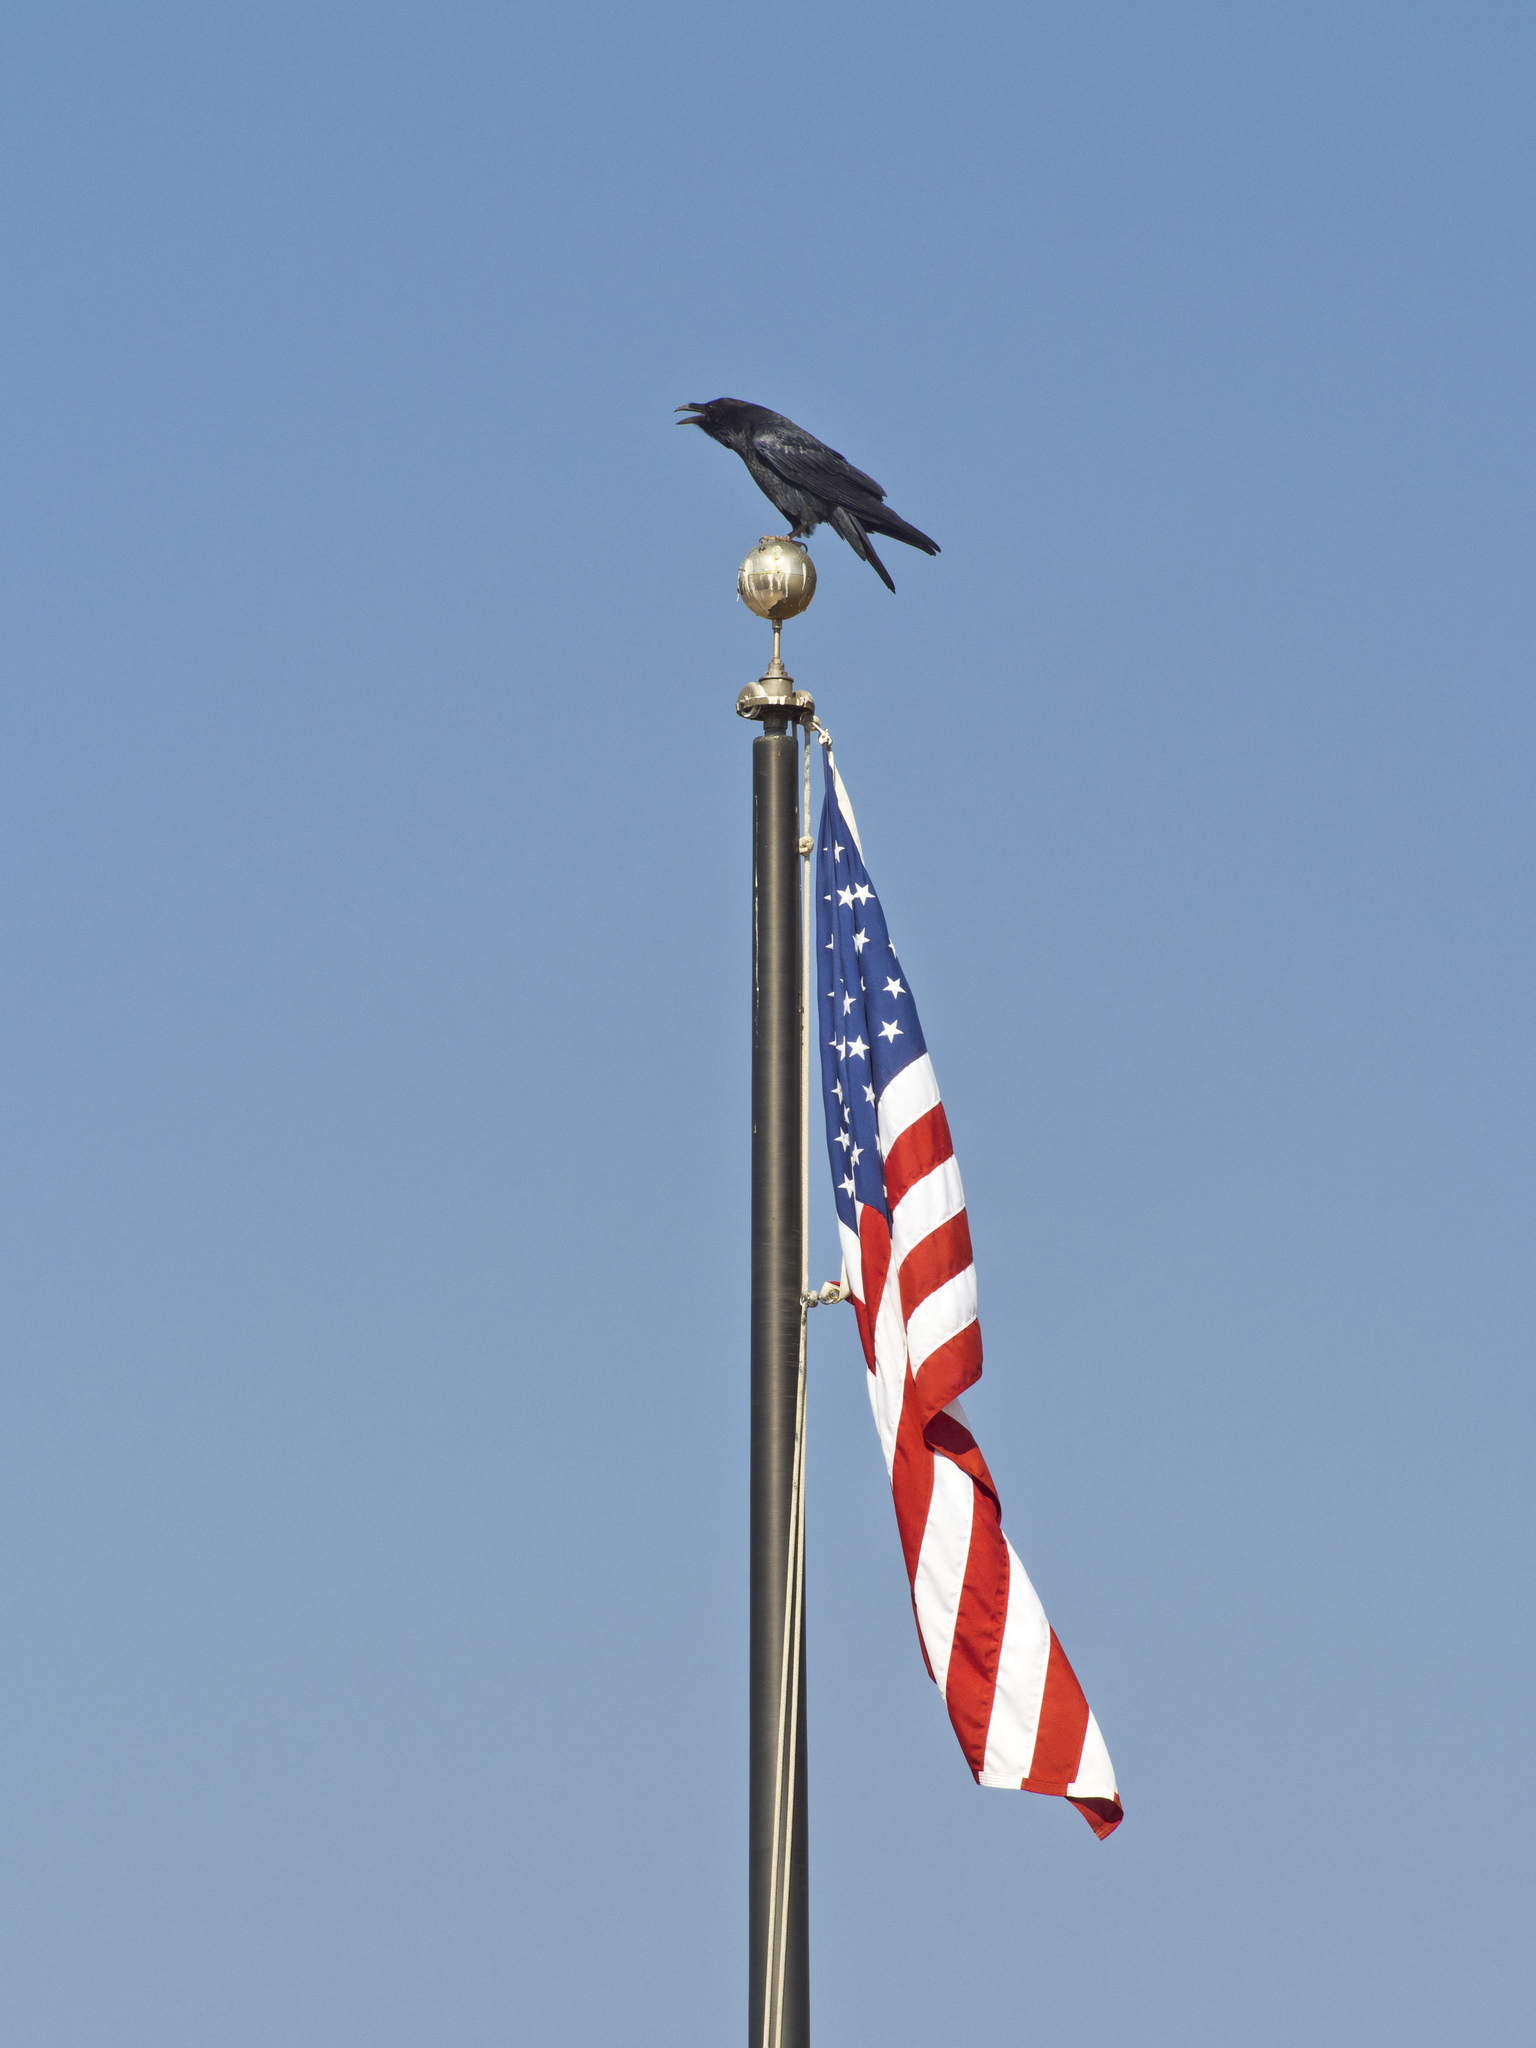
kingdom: Animalia
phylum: Chordata
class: Aves
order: Passeriformes
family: Corvidae
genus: Corvus
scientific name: Corvus corax
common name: Common raven
